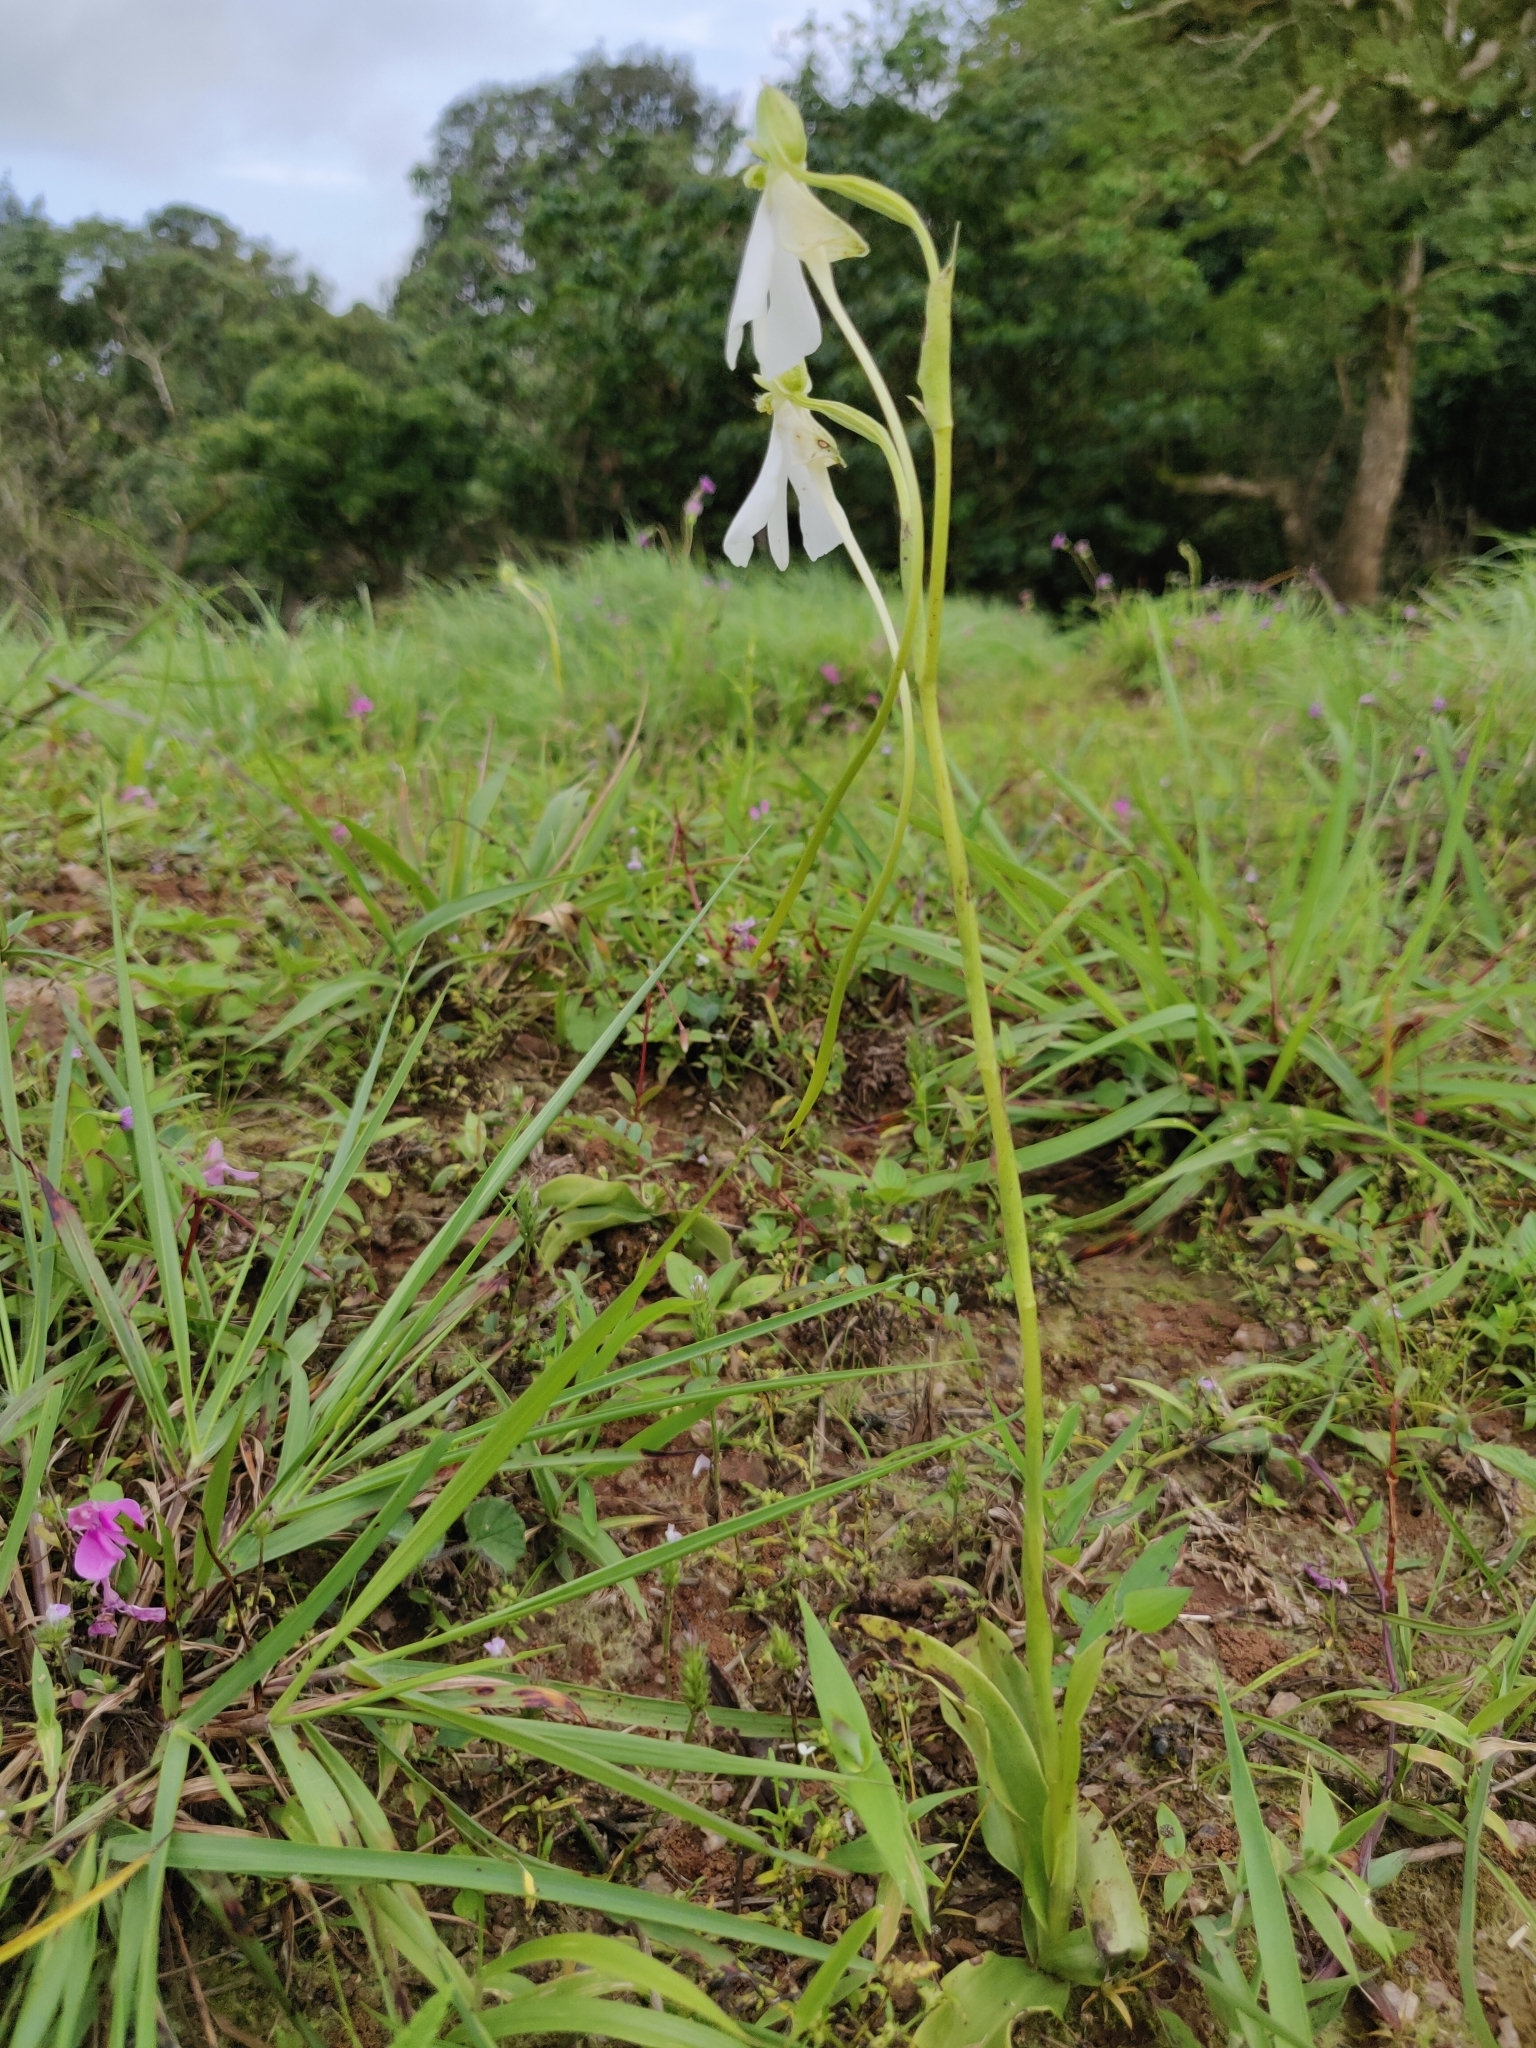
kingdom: Plantae
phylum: Tracheophyta
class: Liliopsida
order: Asparagales
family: Orchidaceae
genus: Habenaria
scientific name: Habenaria longicorniculata
